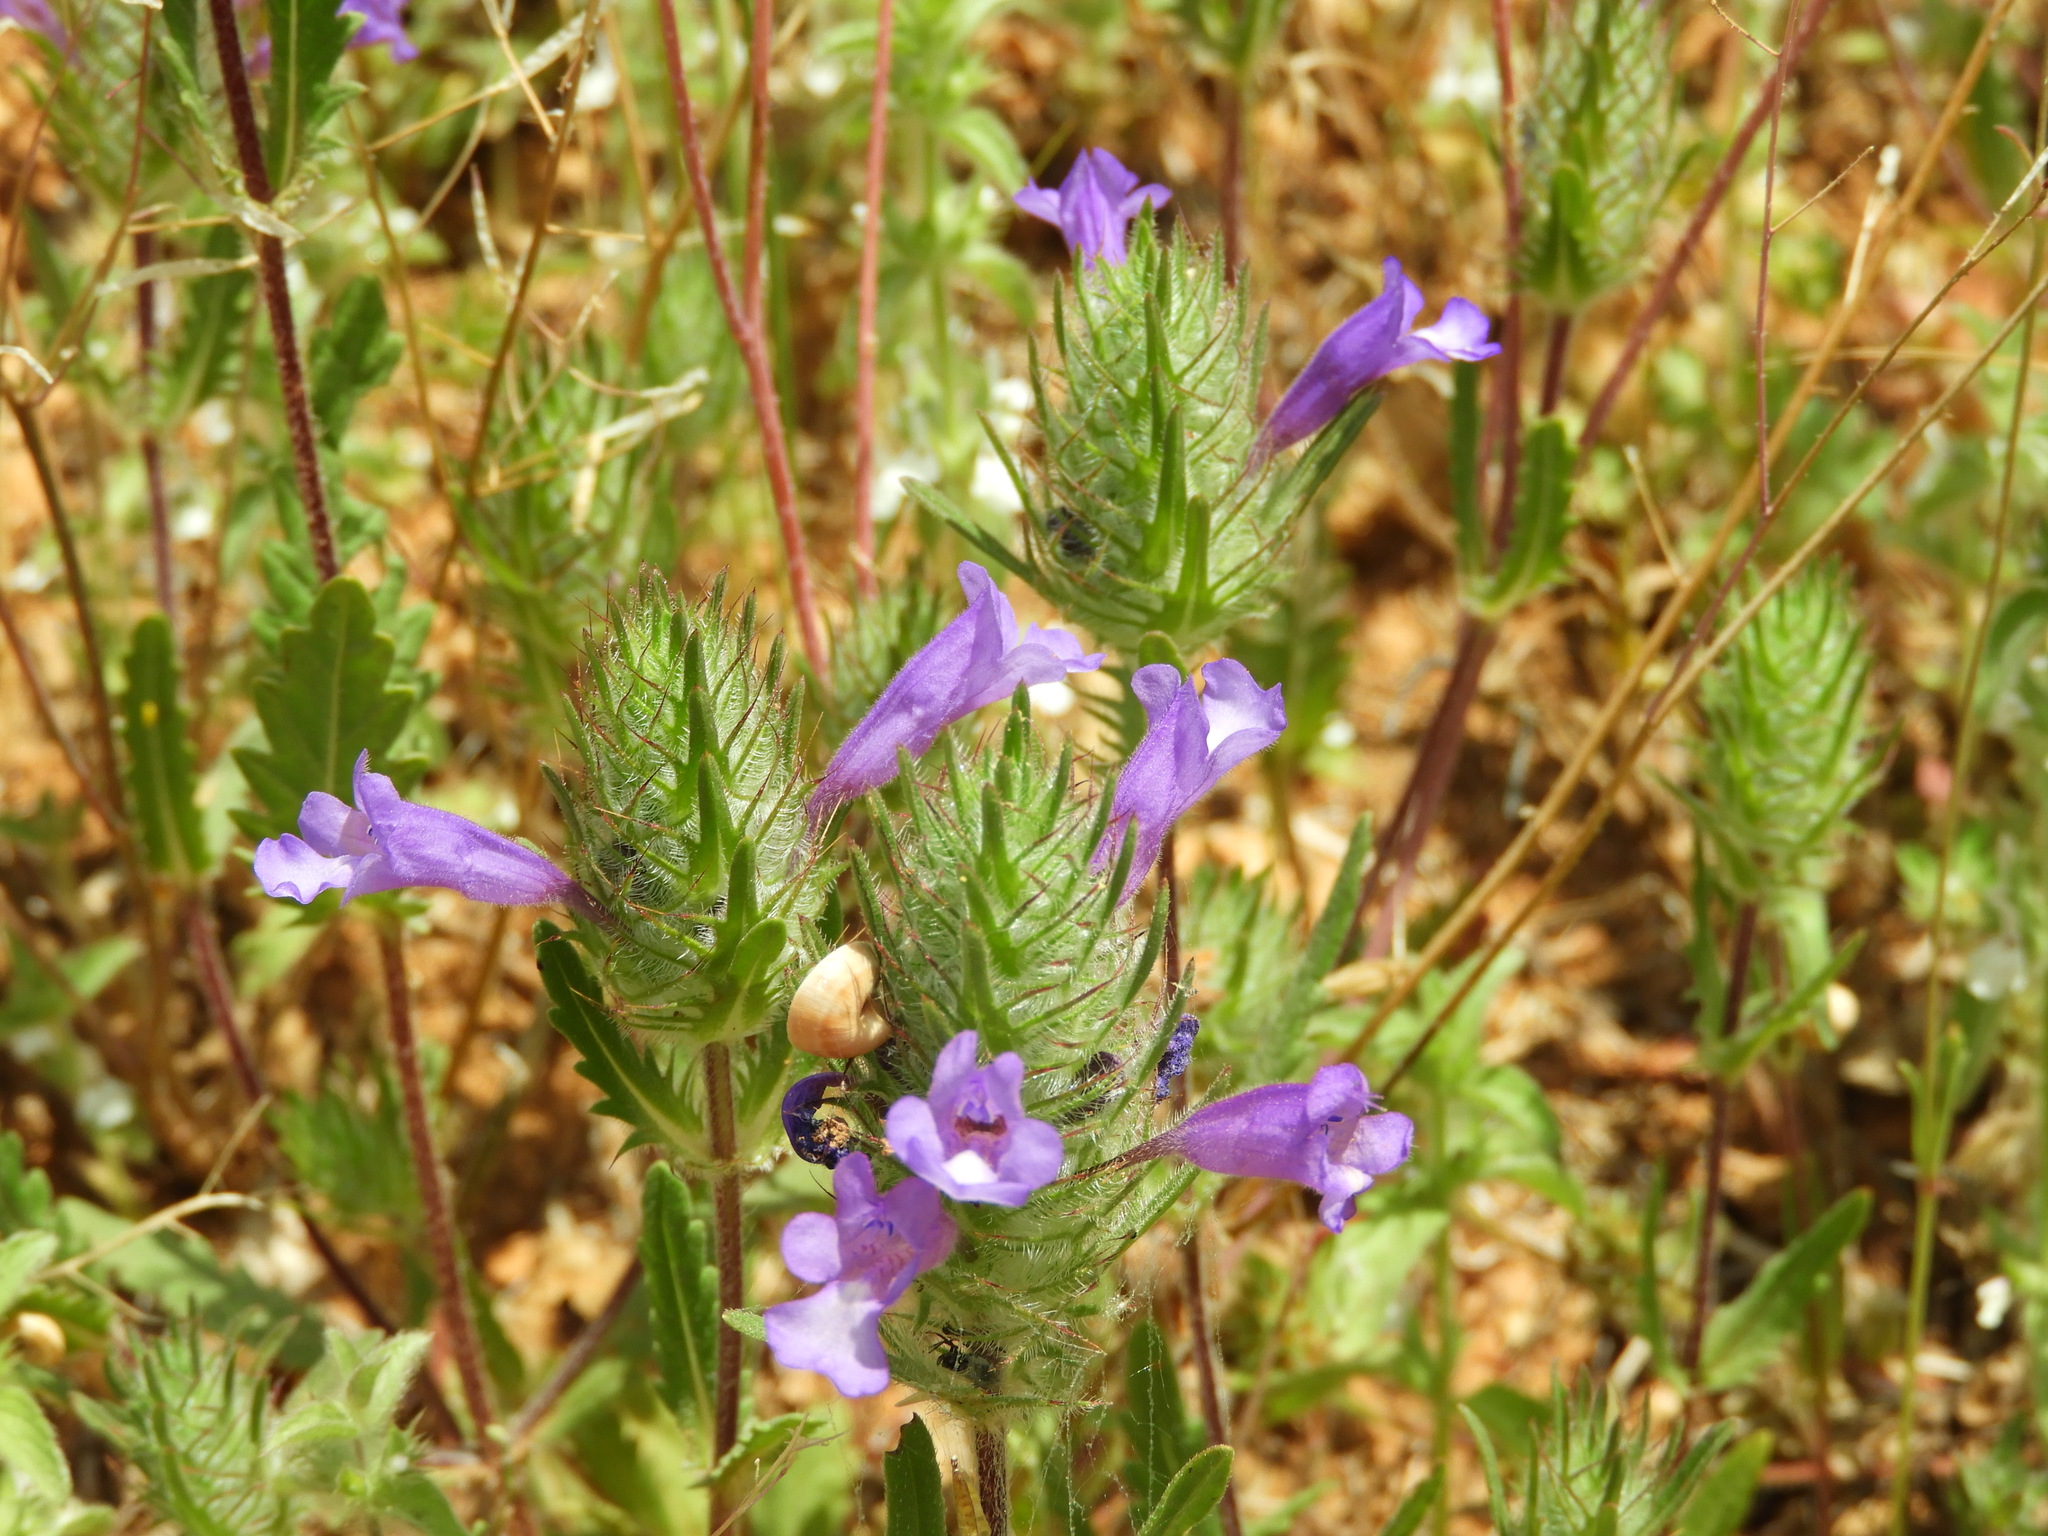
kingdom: Plantae
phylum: Tracheophyta
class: Magnoliopsida
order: Lamiales
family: Lamiaceae
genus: Cleonia
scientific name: Cleonia lusitanica
